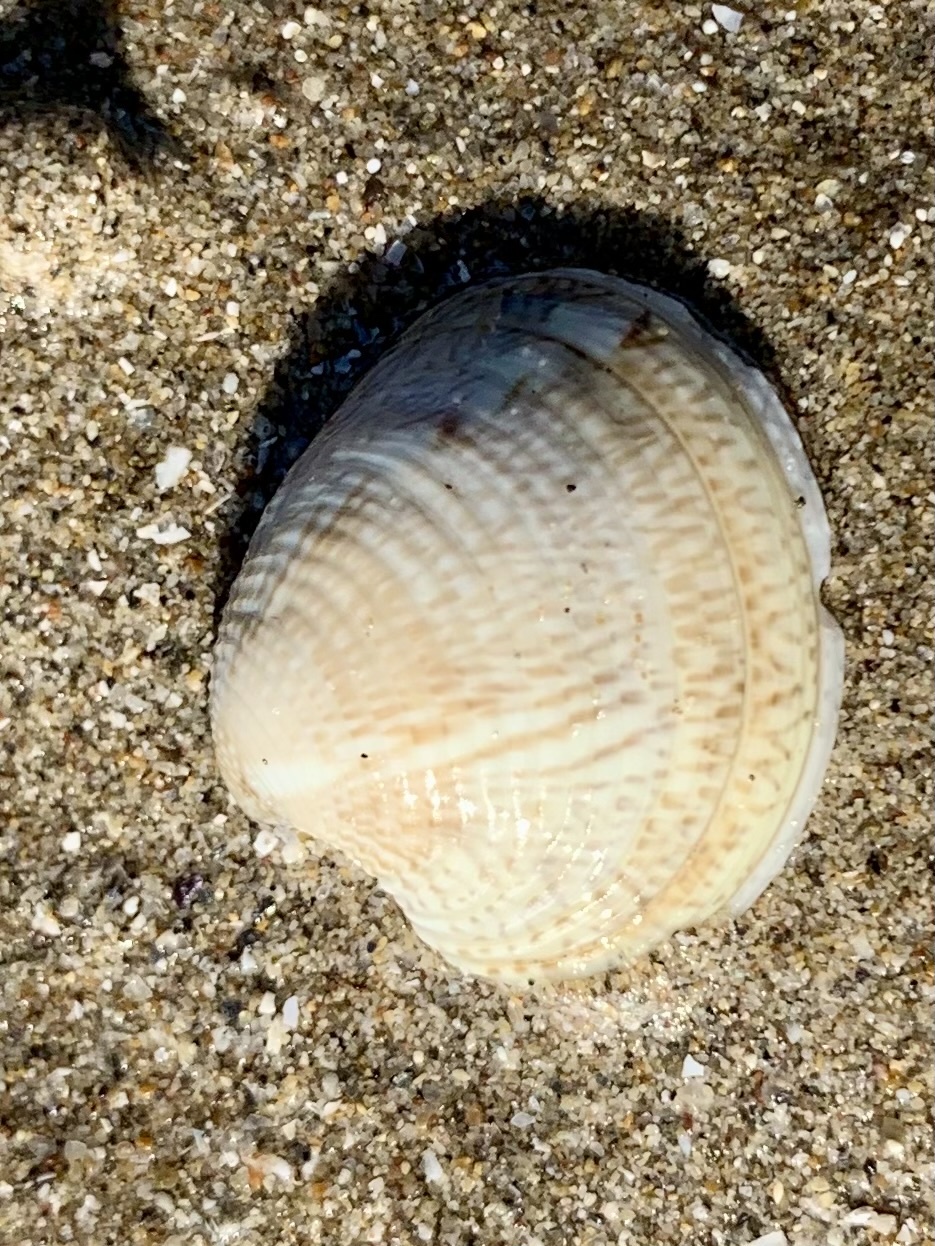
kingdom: Animalia
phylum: Mollusca
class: Bivalvia
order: Venerida
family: Veneridae
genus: Chamelea
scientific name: Chamelea gallina
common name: Chicken venus
